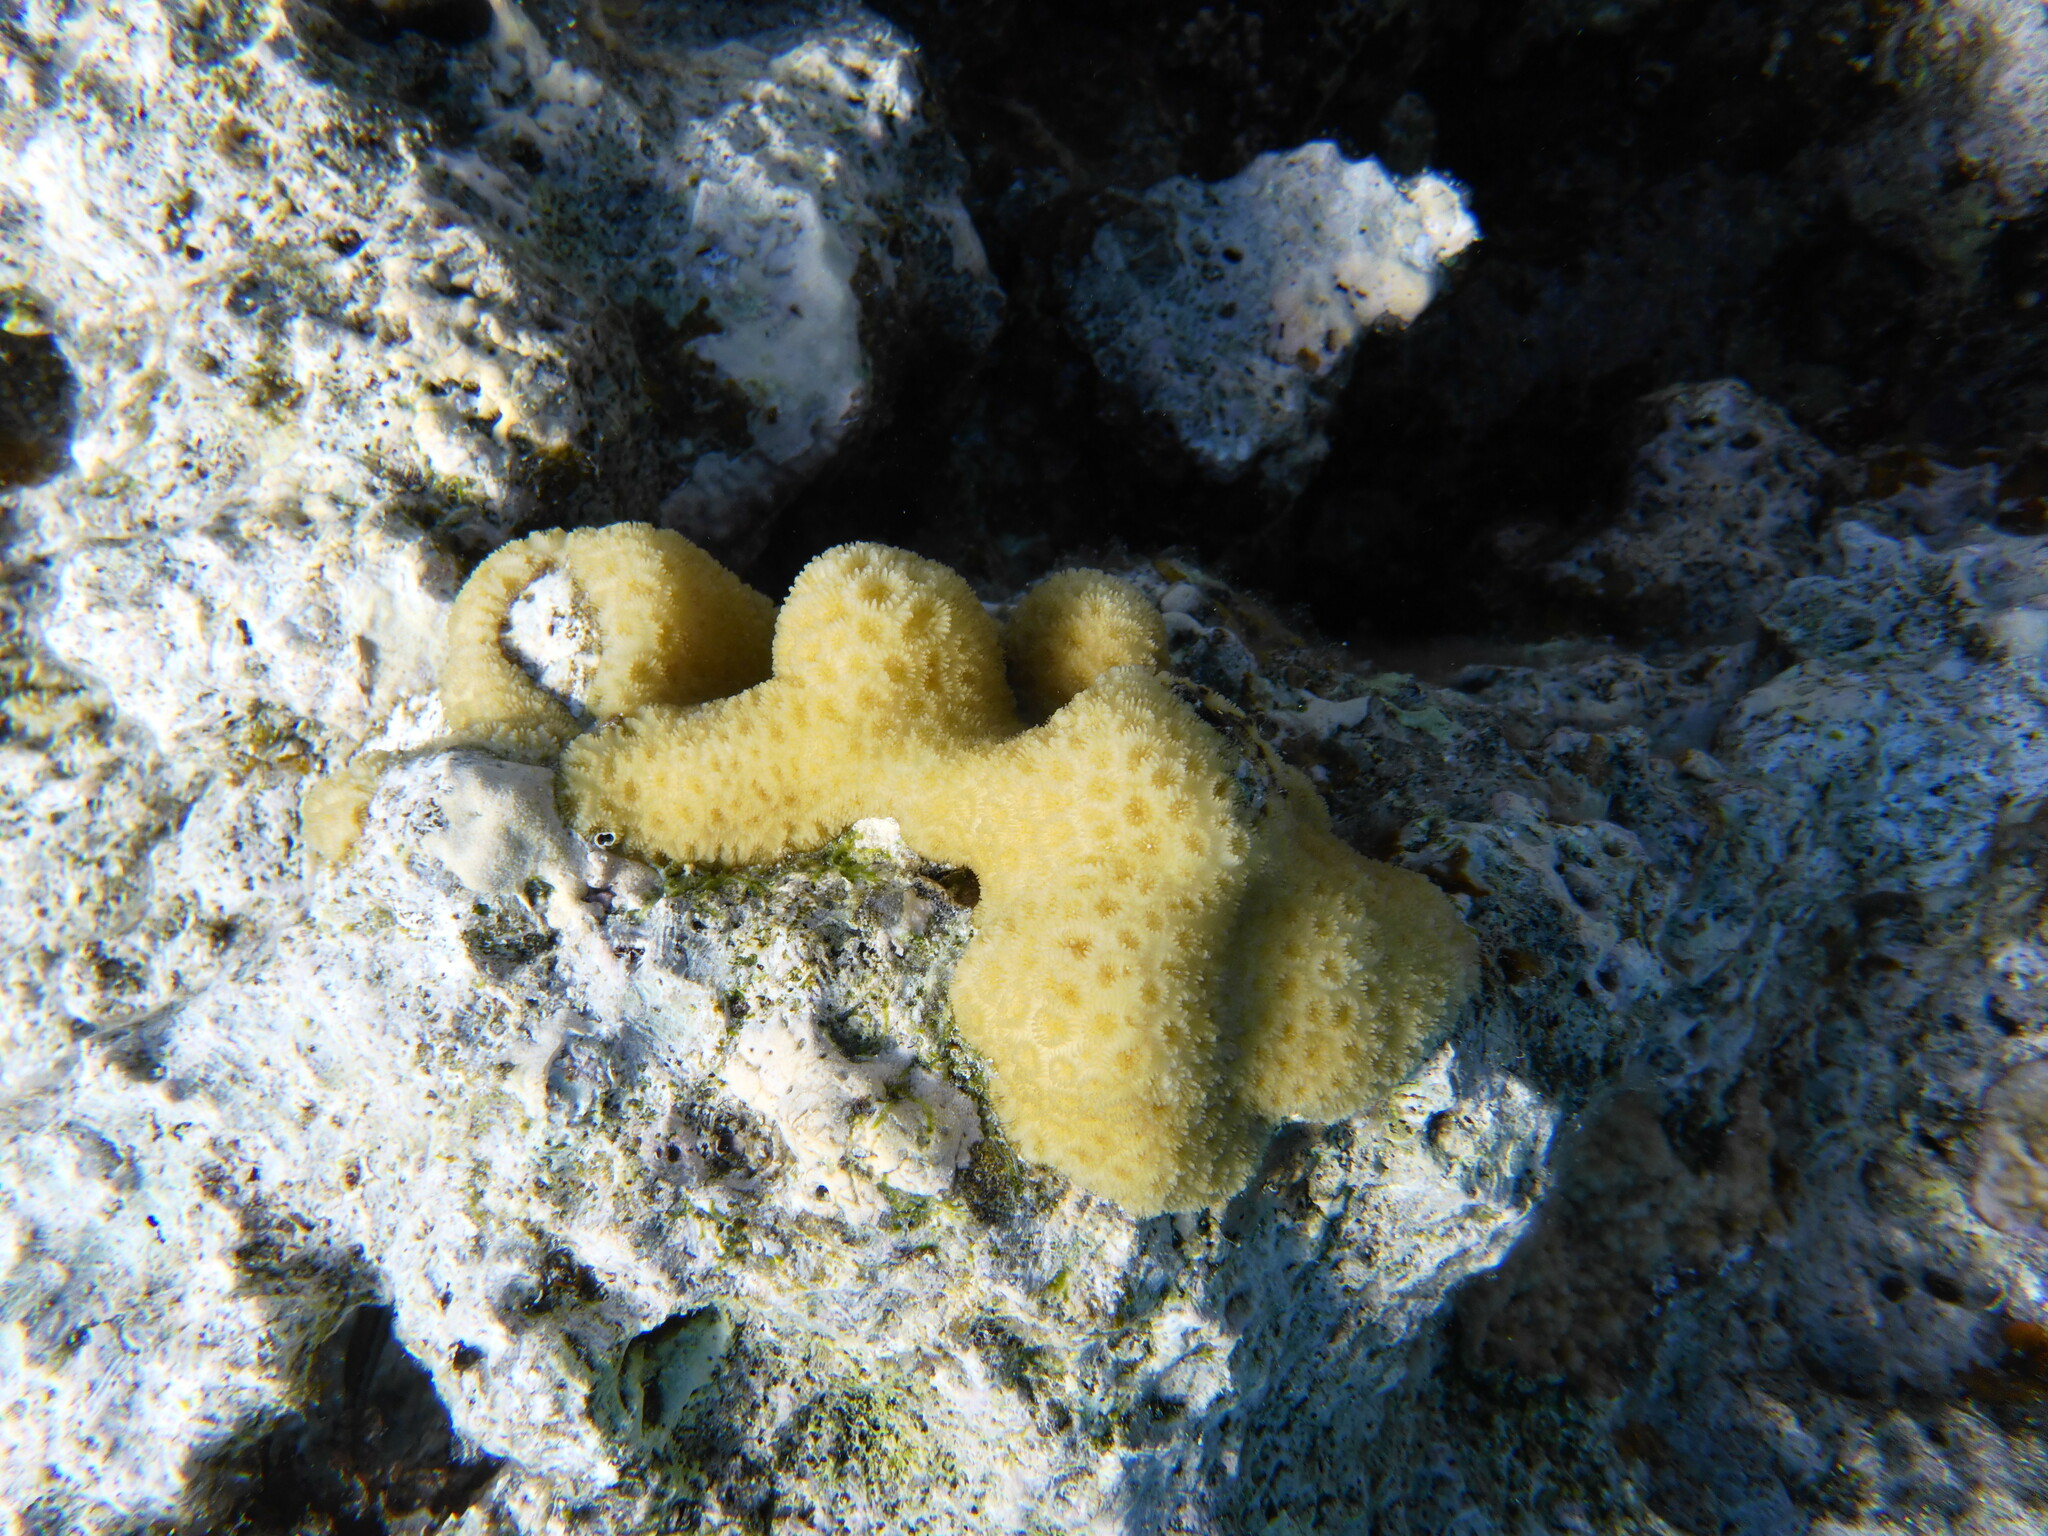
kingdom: Animalia
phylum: Cnidaria
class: Anthozoa
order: Scleractinia
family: Merulinidae
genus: Goniastrea
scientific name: Goniastrea stelligera
